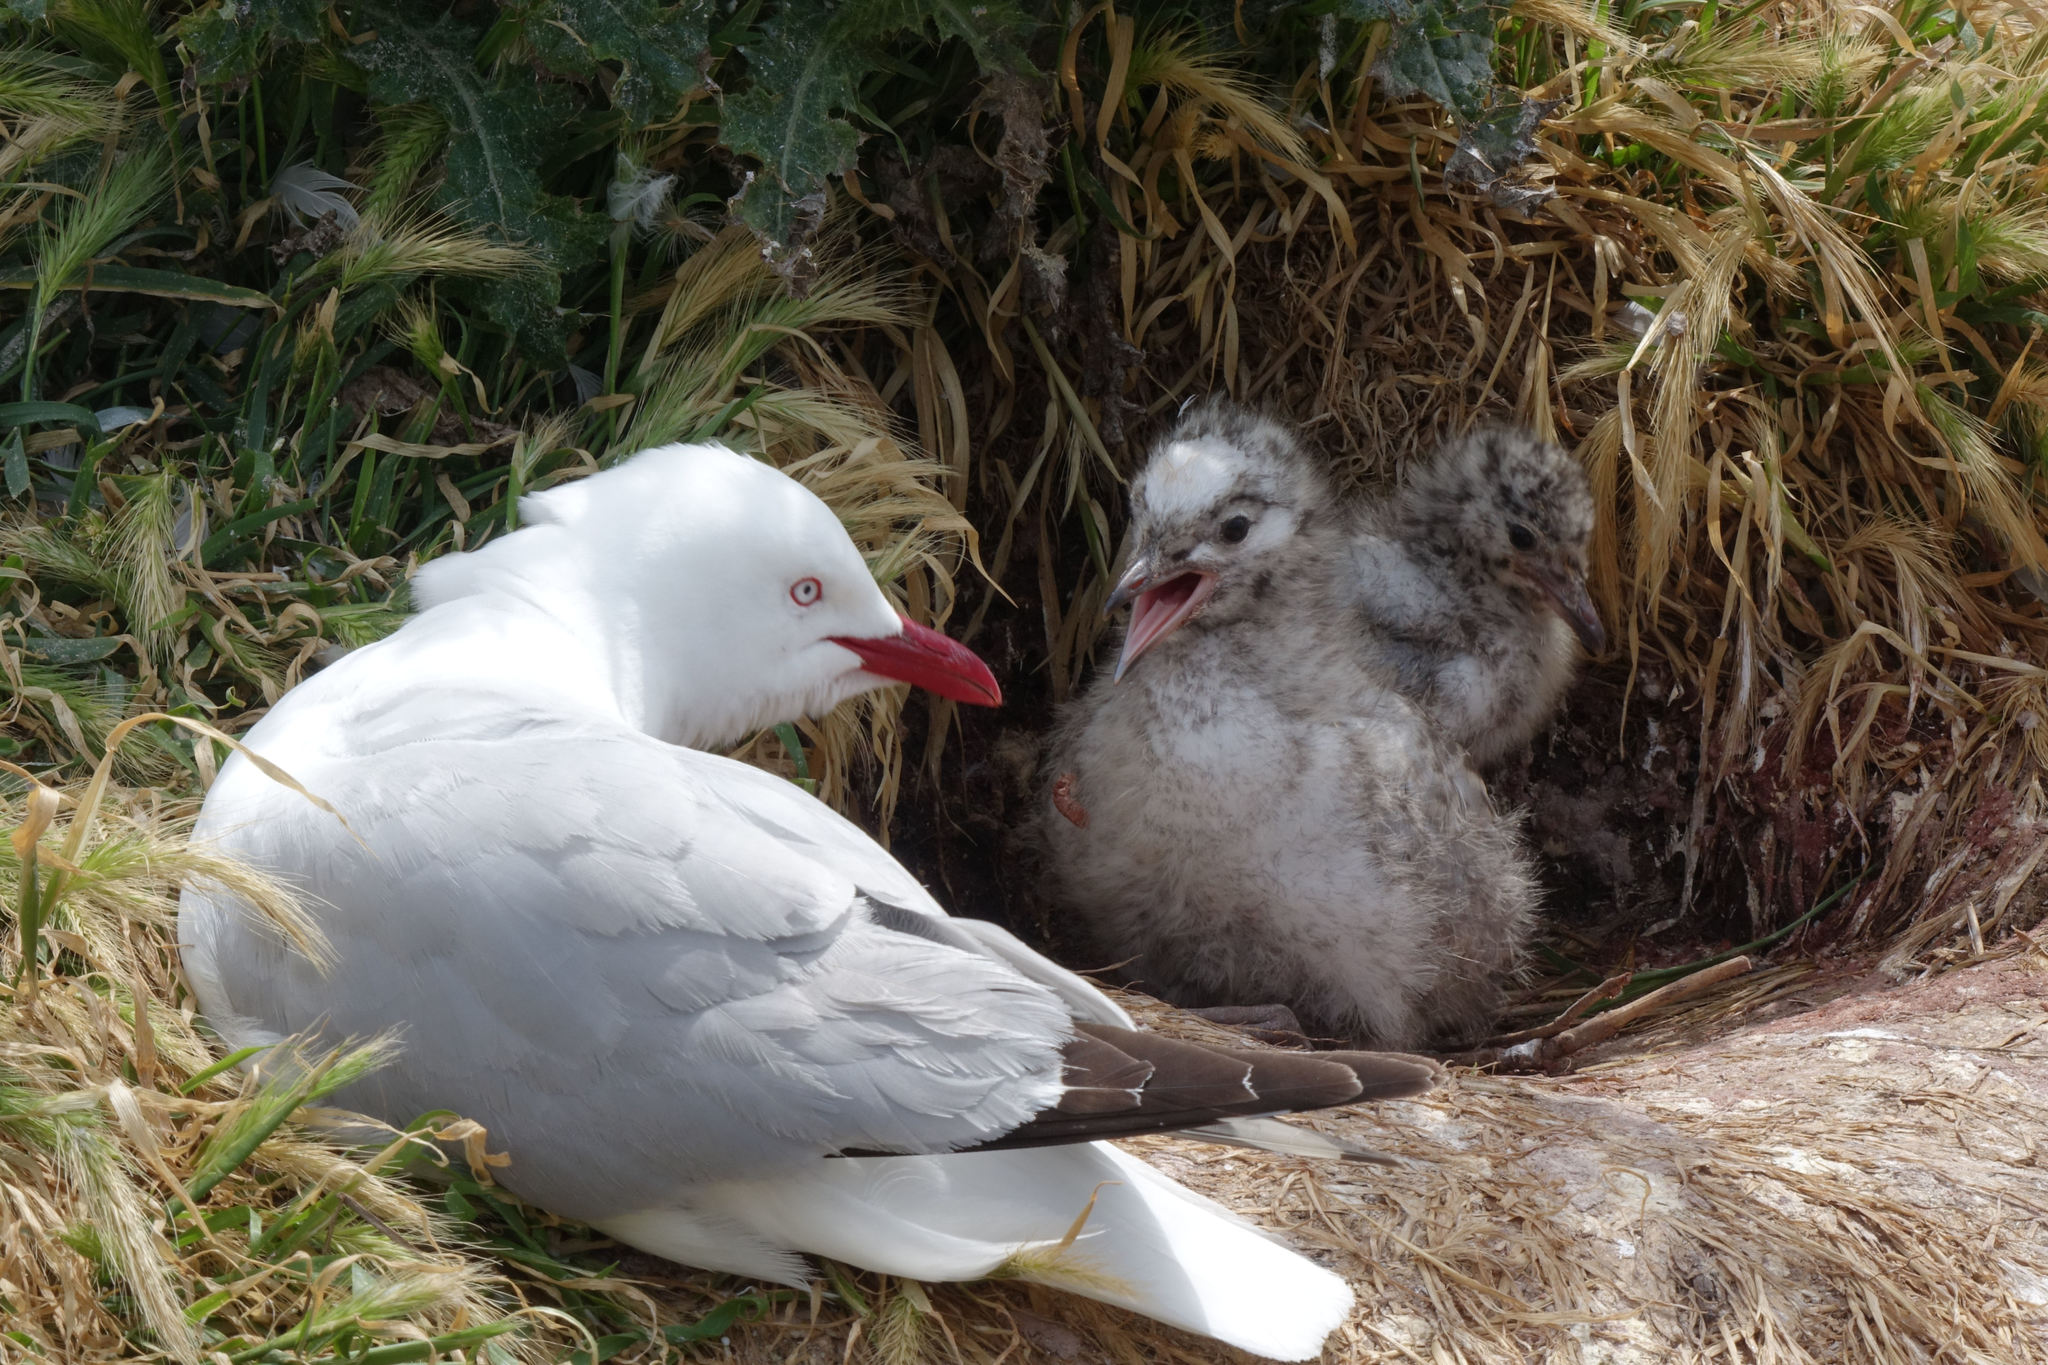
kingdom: Animalia
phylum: Chordata
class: Aves
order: Charadriiformes
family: Laridae
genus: Chroicocephalus
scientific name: Chroicocephalus novaehollandiae
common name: Silver gull
